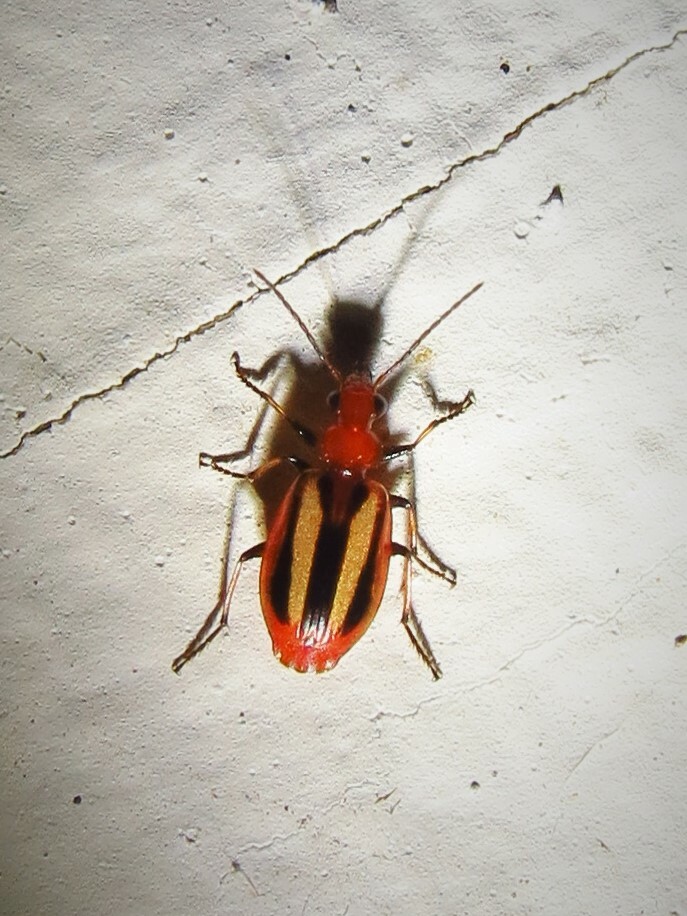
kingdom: Animalia
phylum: Arthropoda
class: Insecta
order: Coleoptera
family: Carabidae
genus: Lebia
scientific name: Lebia vittata
